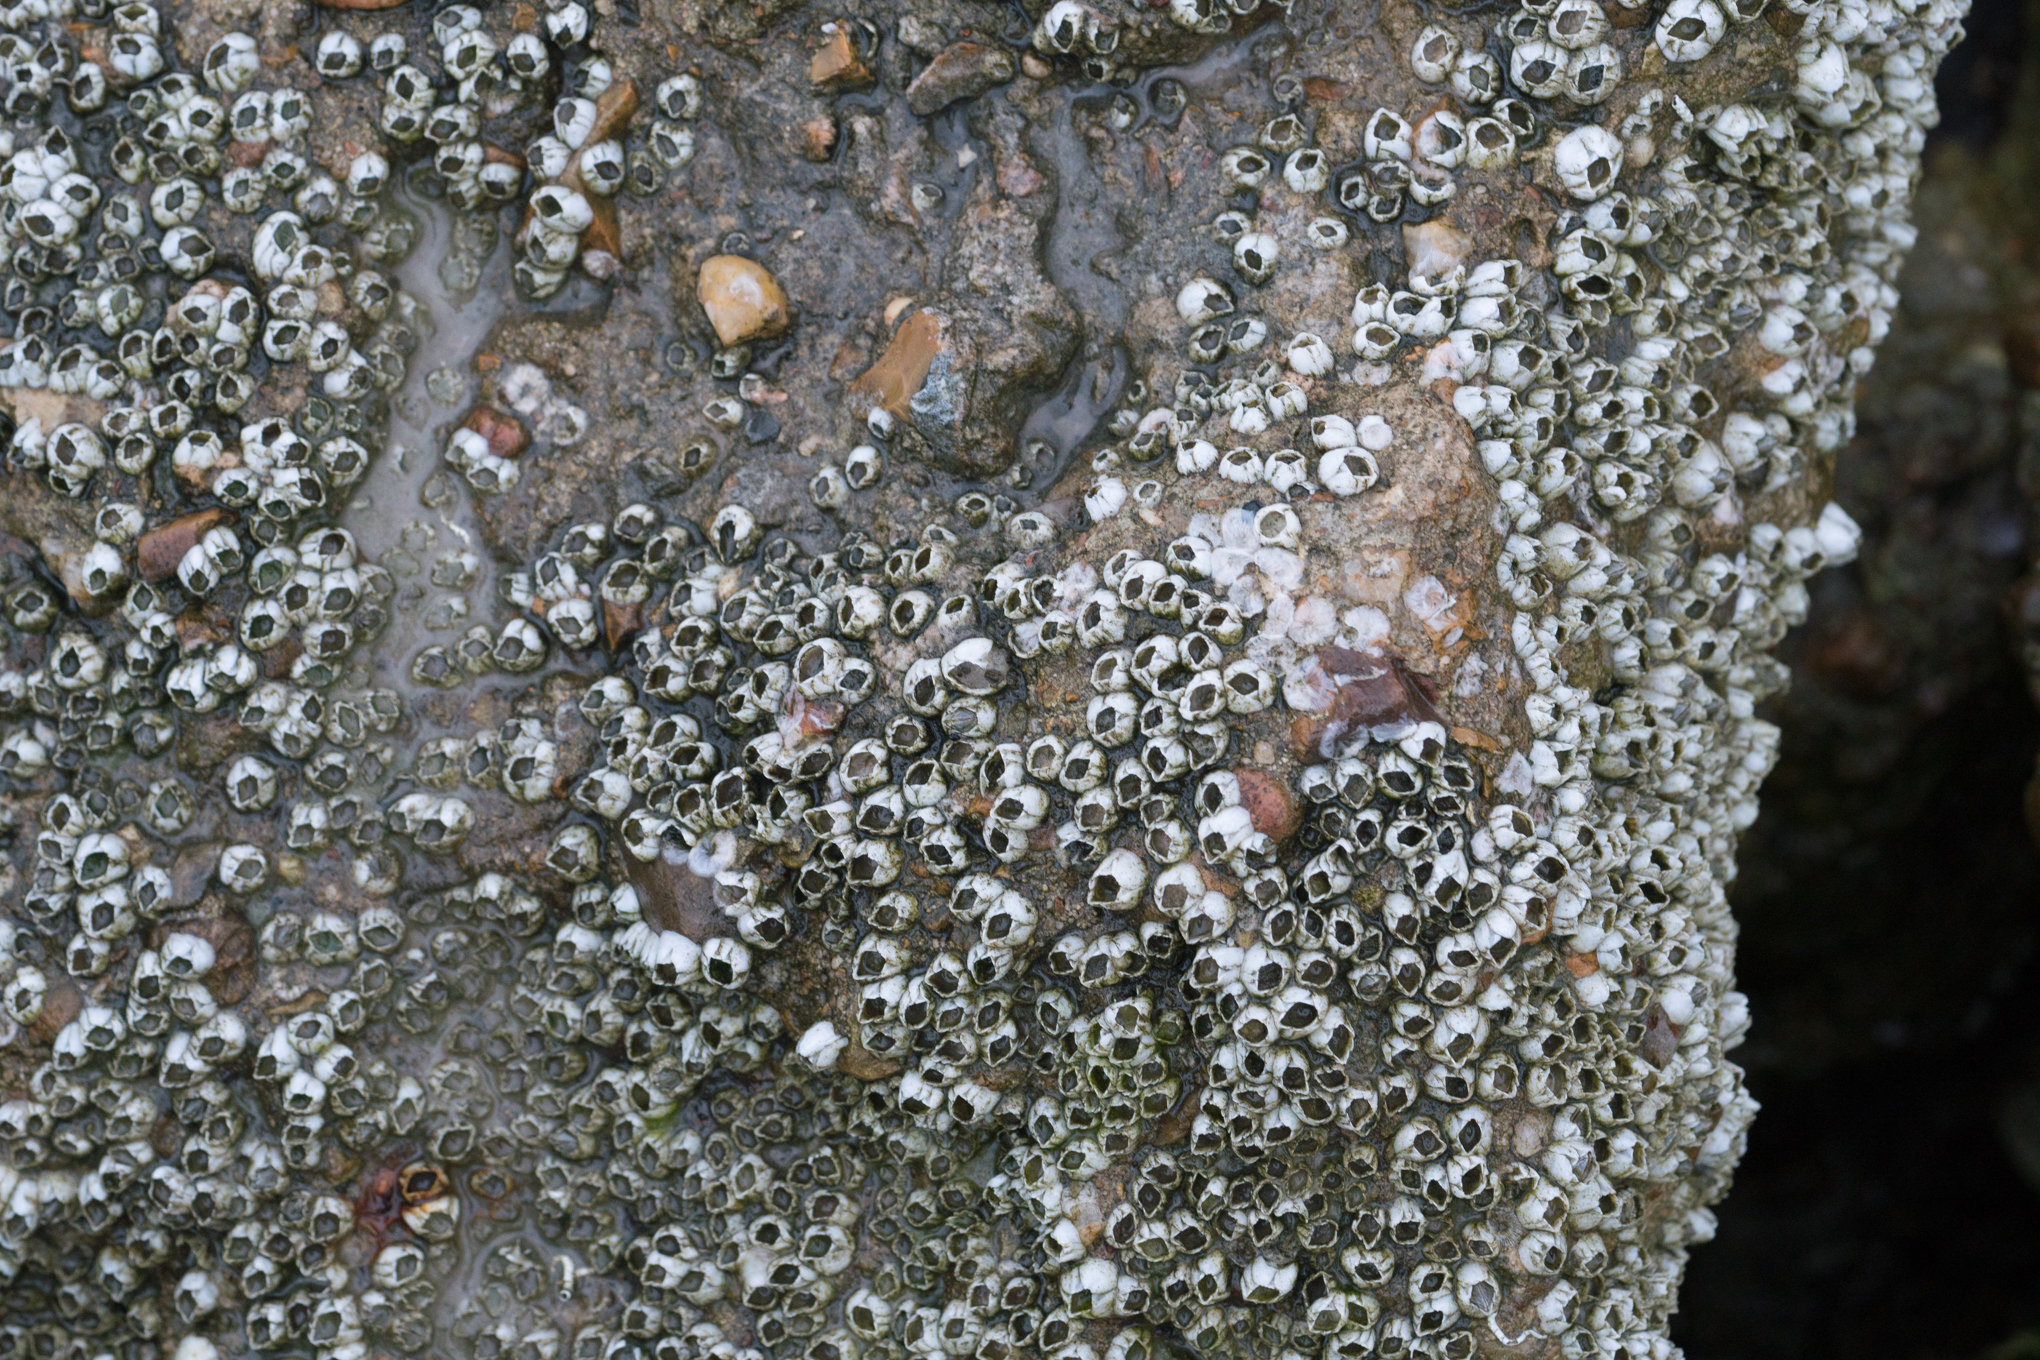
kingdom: Animalia
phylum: Arthropoda
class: Maxillopoda
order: Sessilia
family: Balanidae
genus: Amphibalanus
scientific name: Amphibalanus improvisus
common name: Bay barnacle
